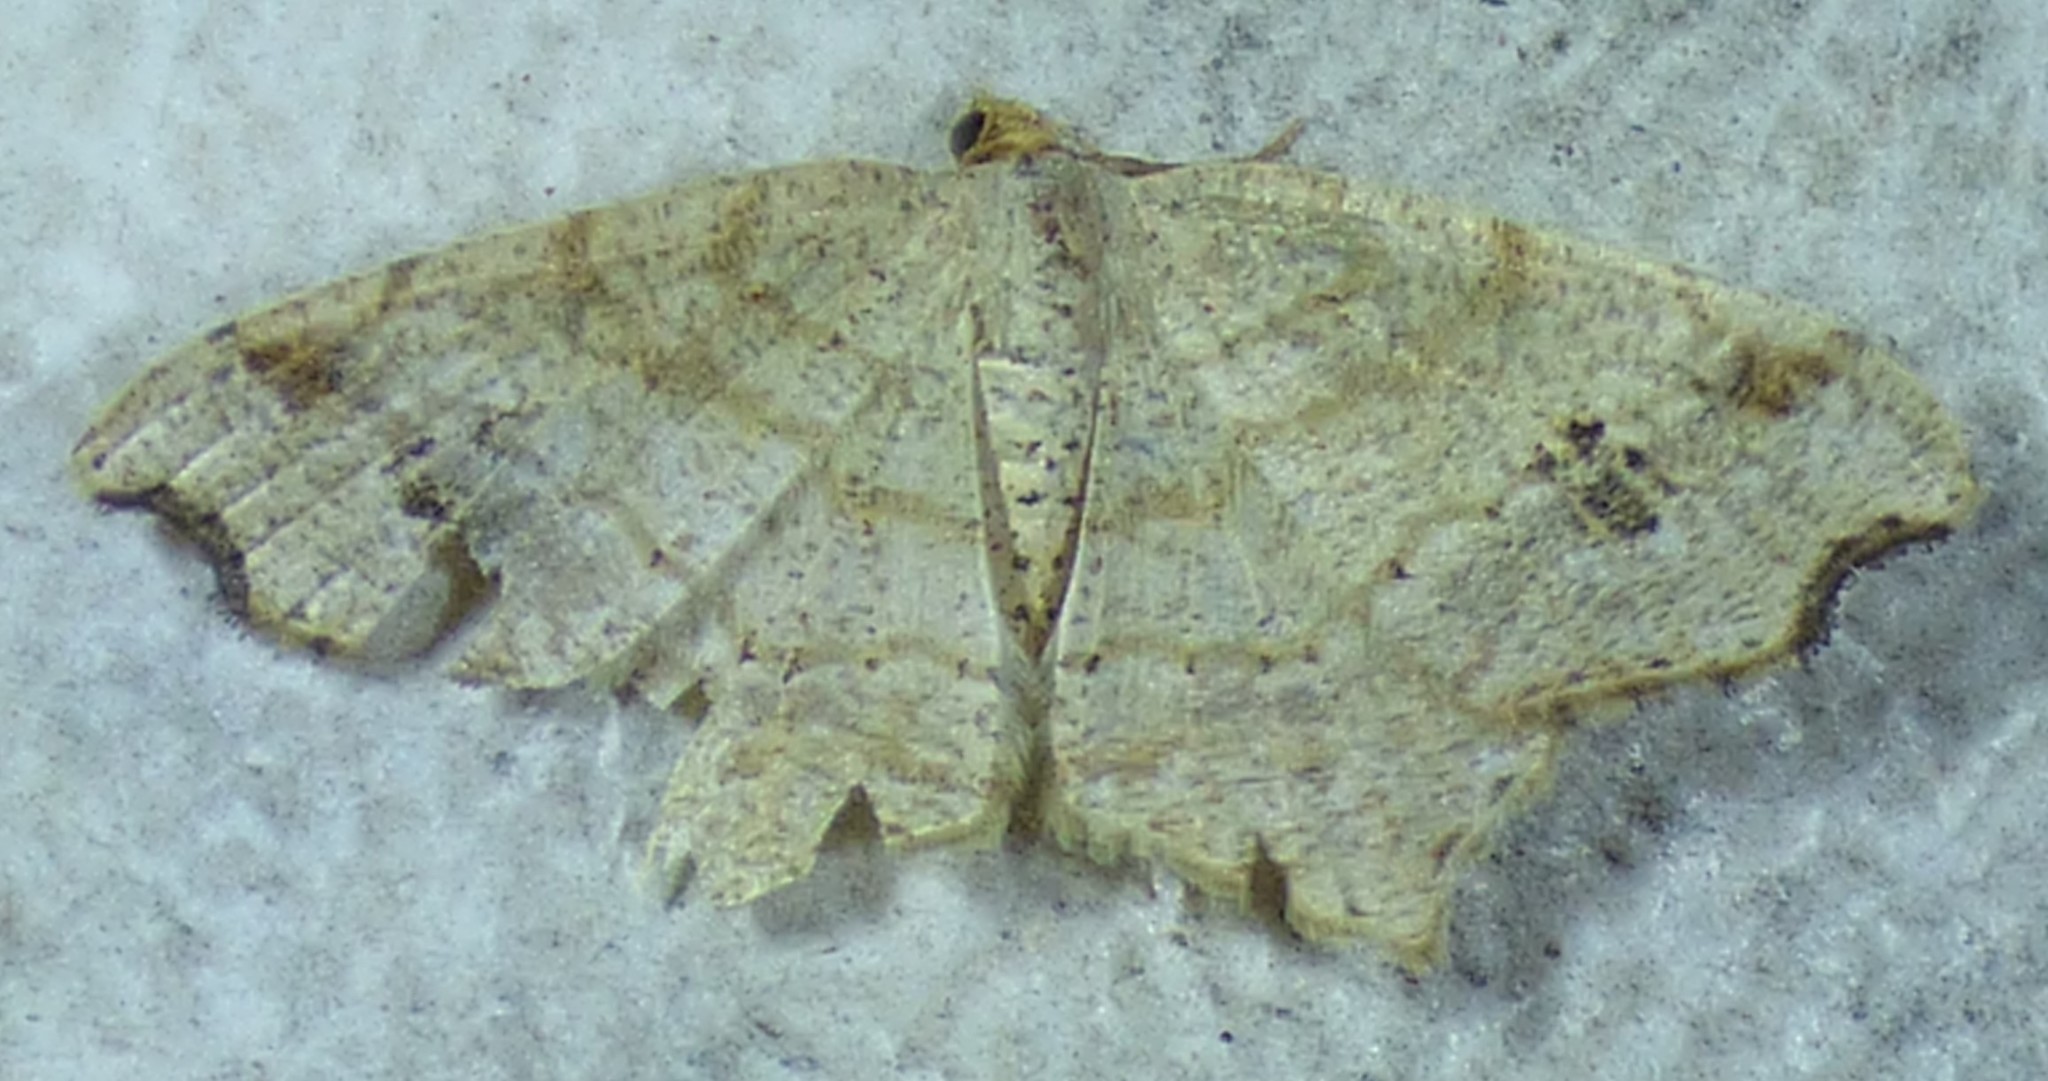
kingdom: Animalia
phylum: Arthropoda
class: Insecta
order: Lepidoptera
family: Geometridae
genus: Macaria
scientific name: Macaria aemulataria
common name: Common angle
